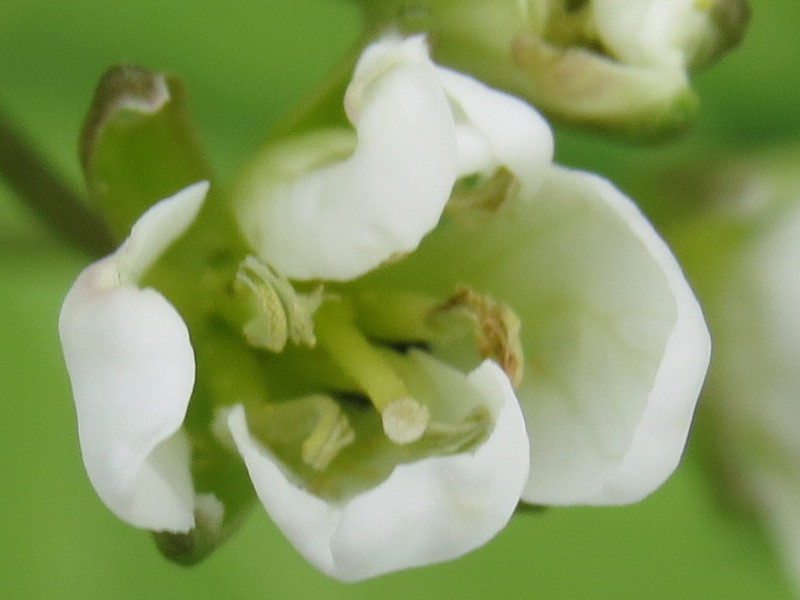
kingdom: Plantae
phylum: Tracheophyta
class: Magnoliopsida
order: Brassicales
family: Brassicaceae
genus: Cardamine
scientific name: Cardamine diphylla
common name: Broad-leaved toothwort
